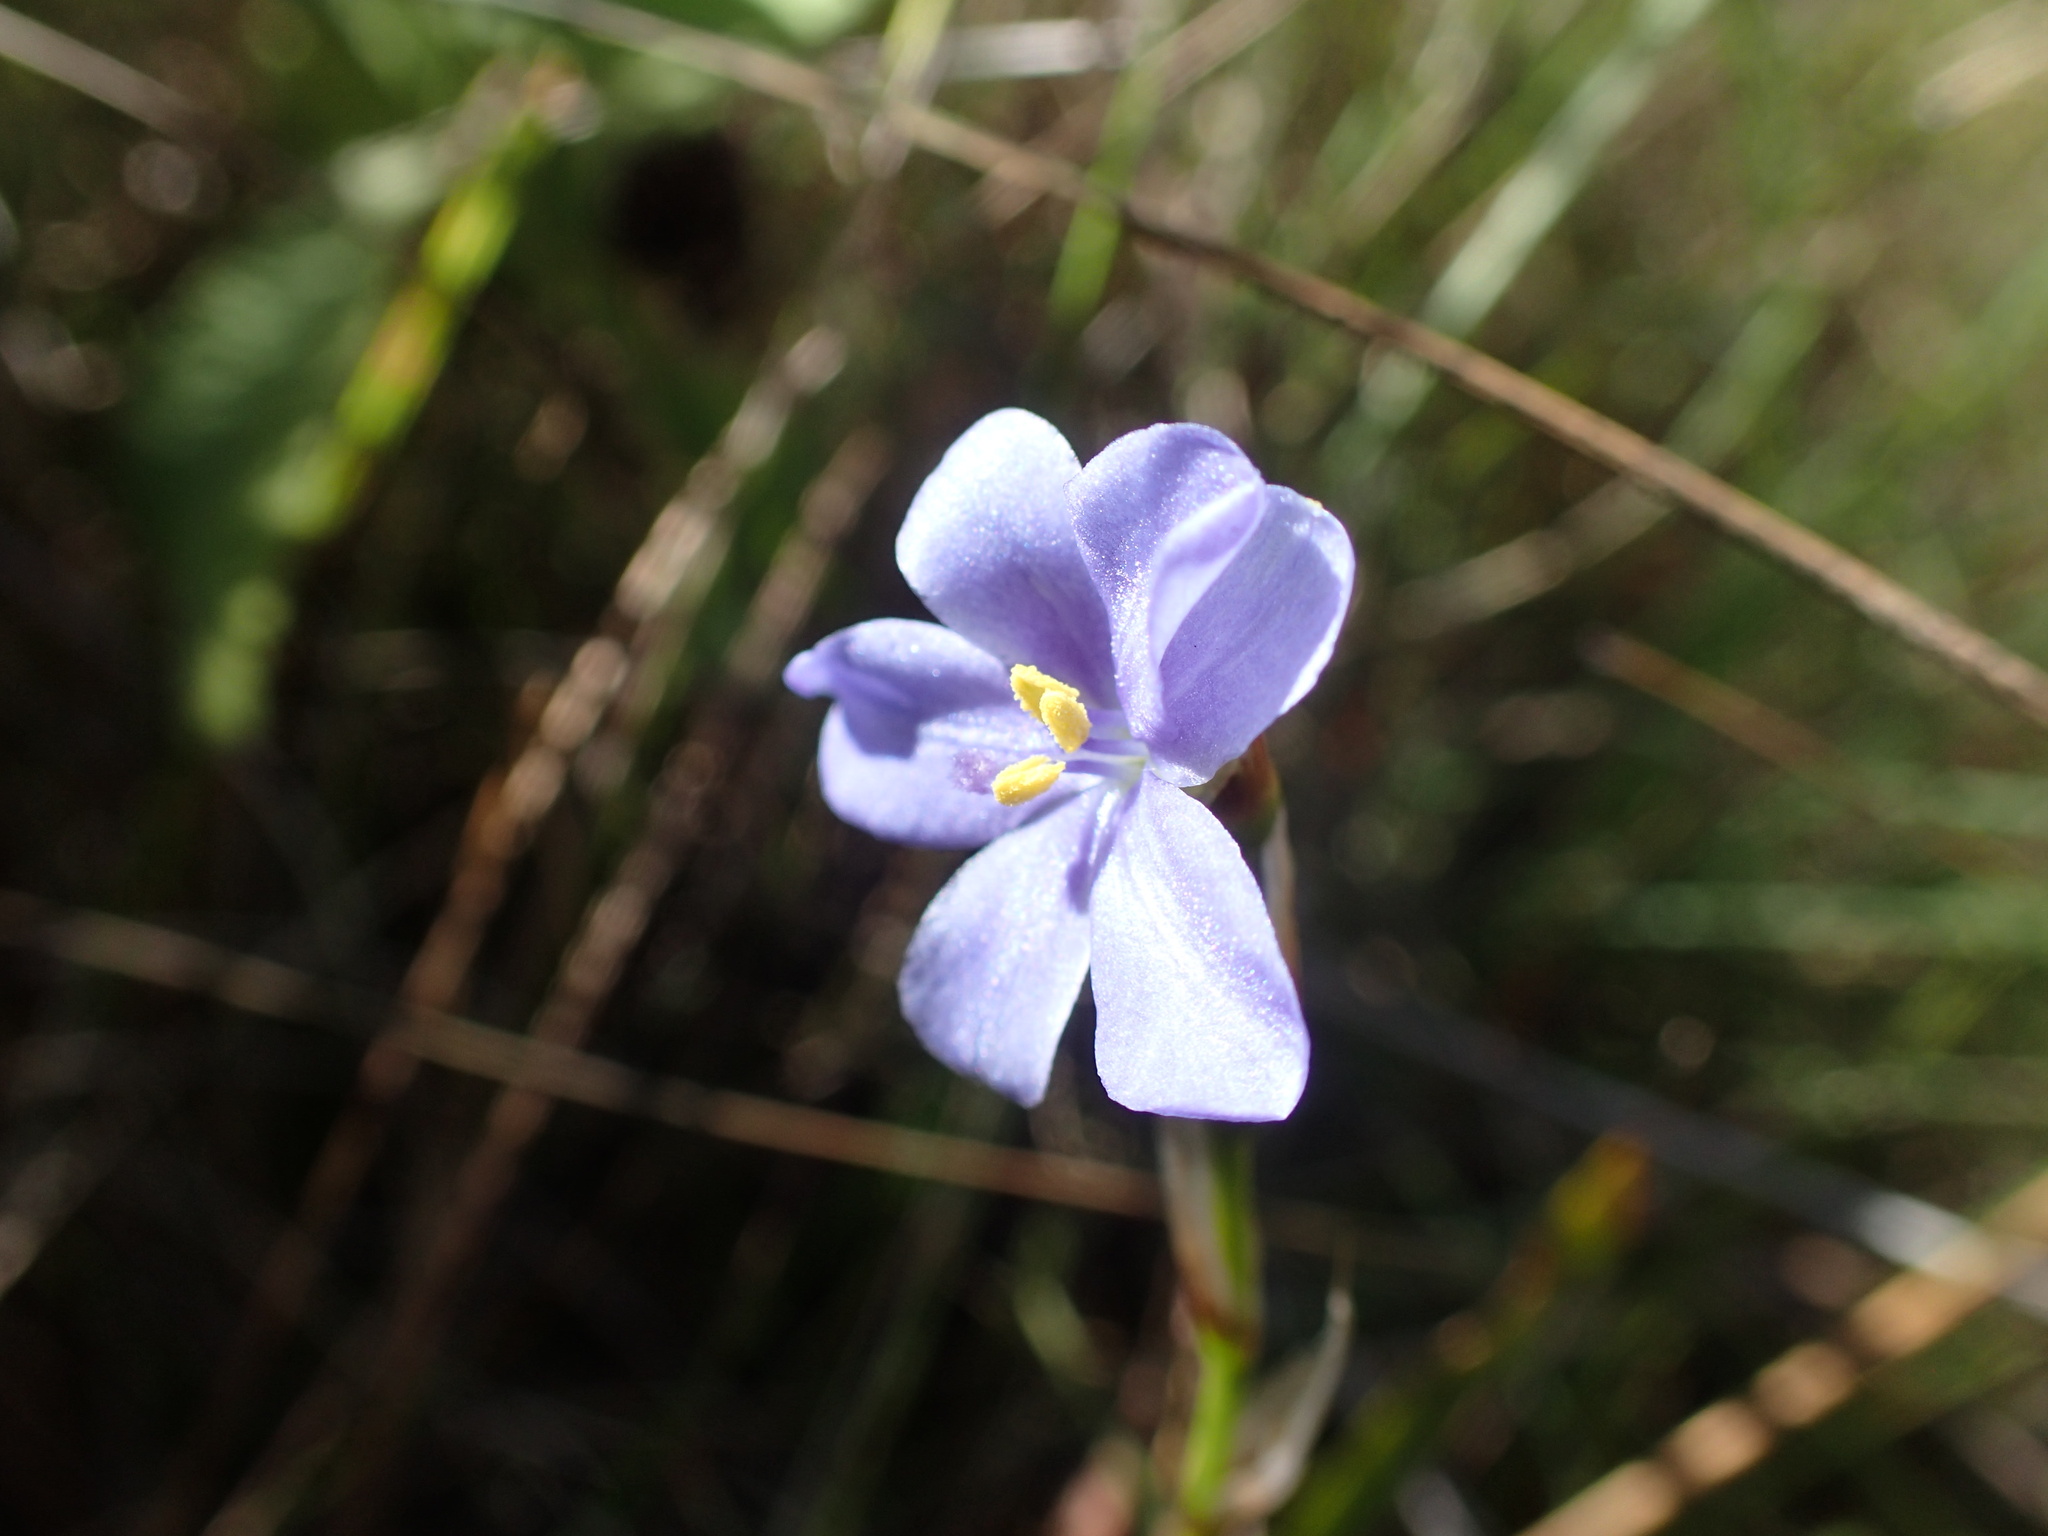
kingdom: Plantae
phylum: Tracheophyta
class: Liliopsida
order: Asparagales
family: Iridaceae
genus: Aristea
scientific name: Aristea abyssinica
